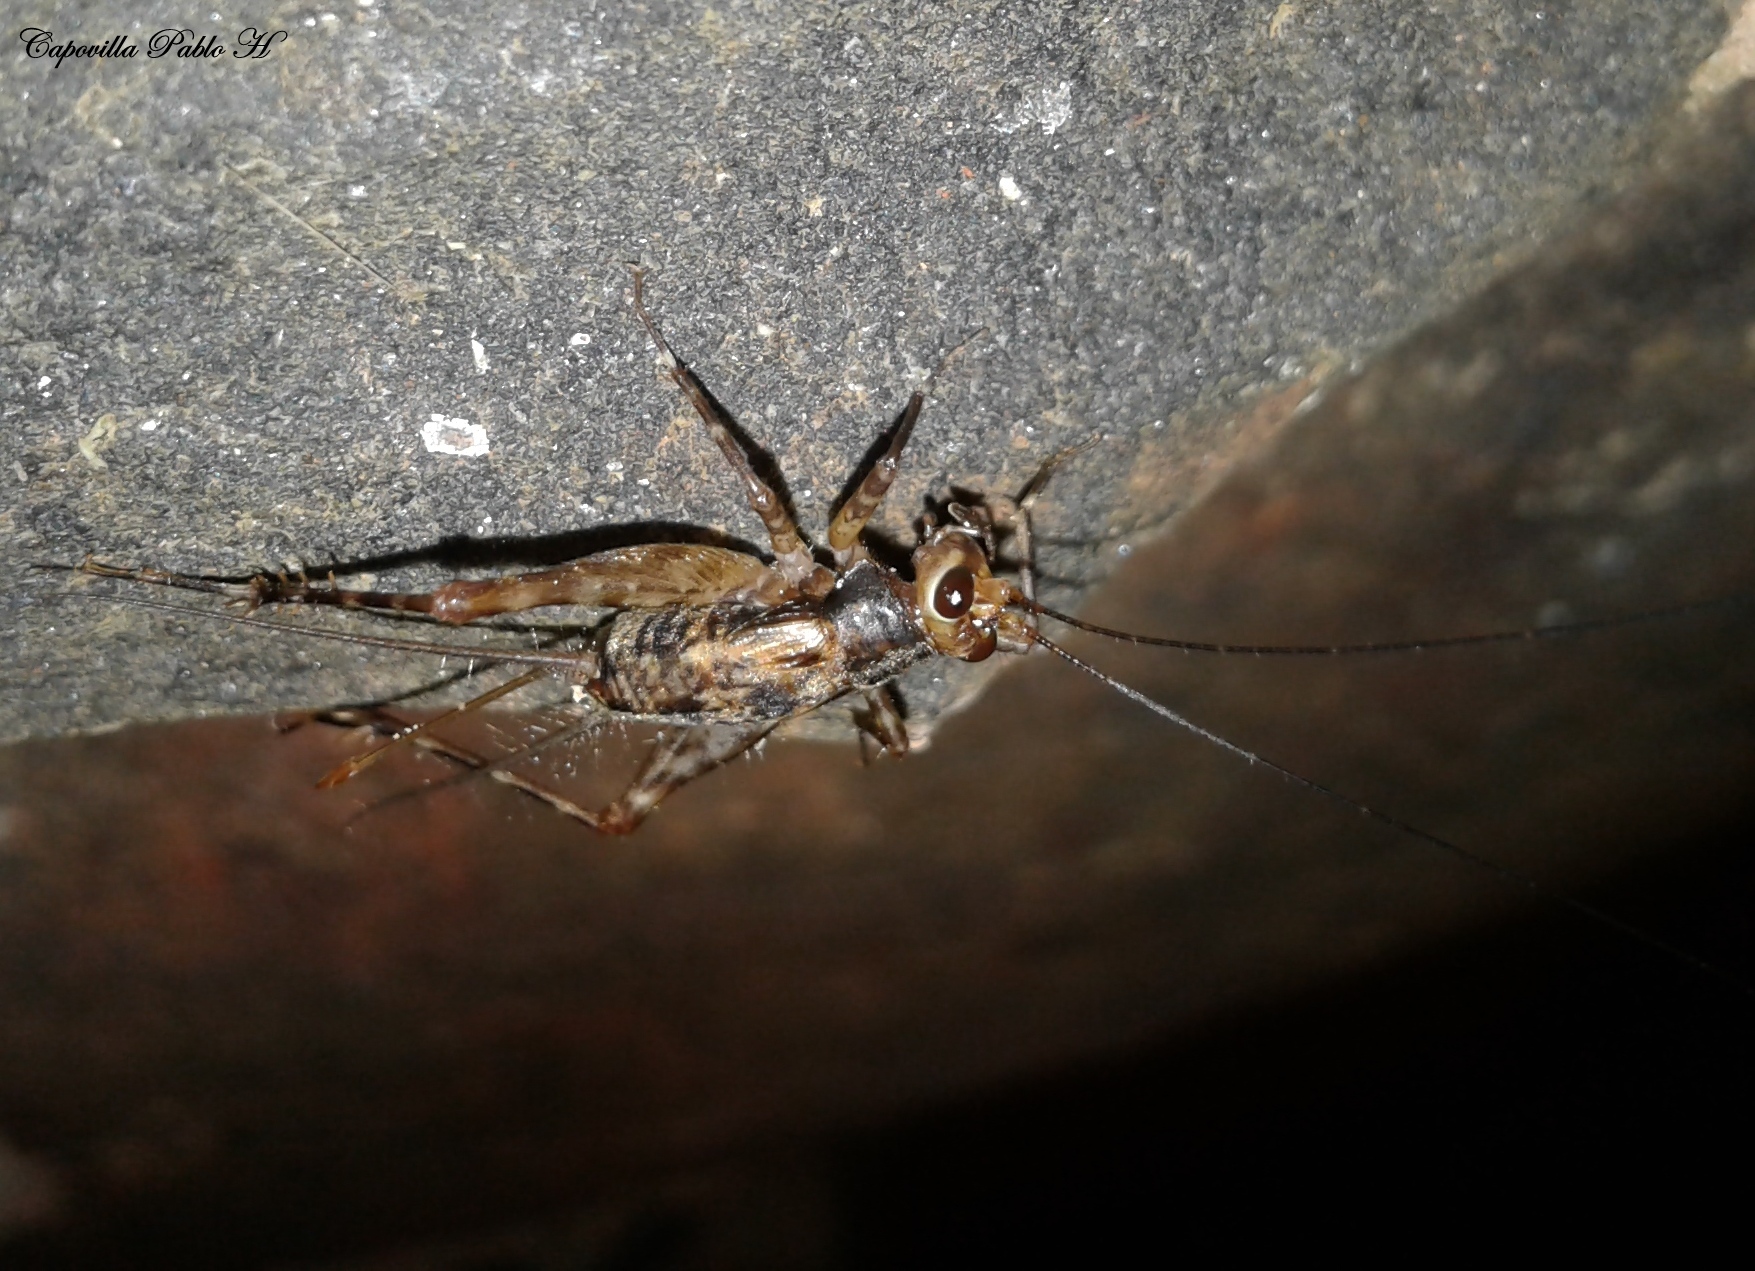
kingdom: Animalia
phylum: Arthropoda
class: Insecta
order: Orthoptera
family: Phalangopsidae
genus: Ubiquepuella
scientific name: Ubiquepuella telytokous
